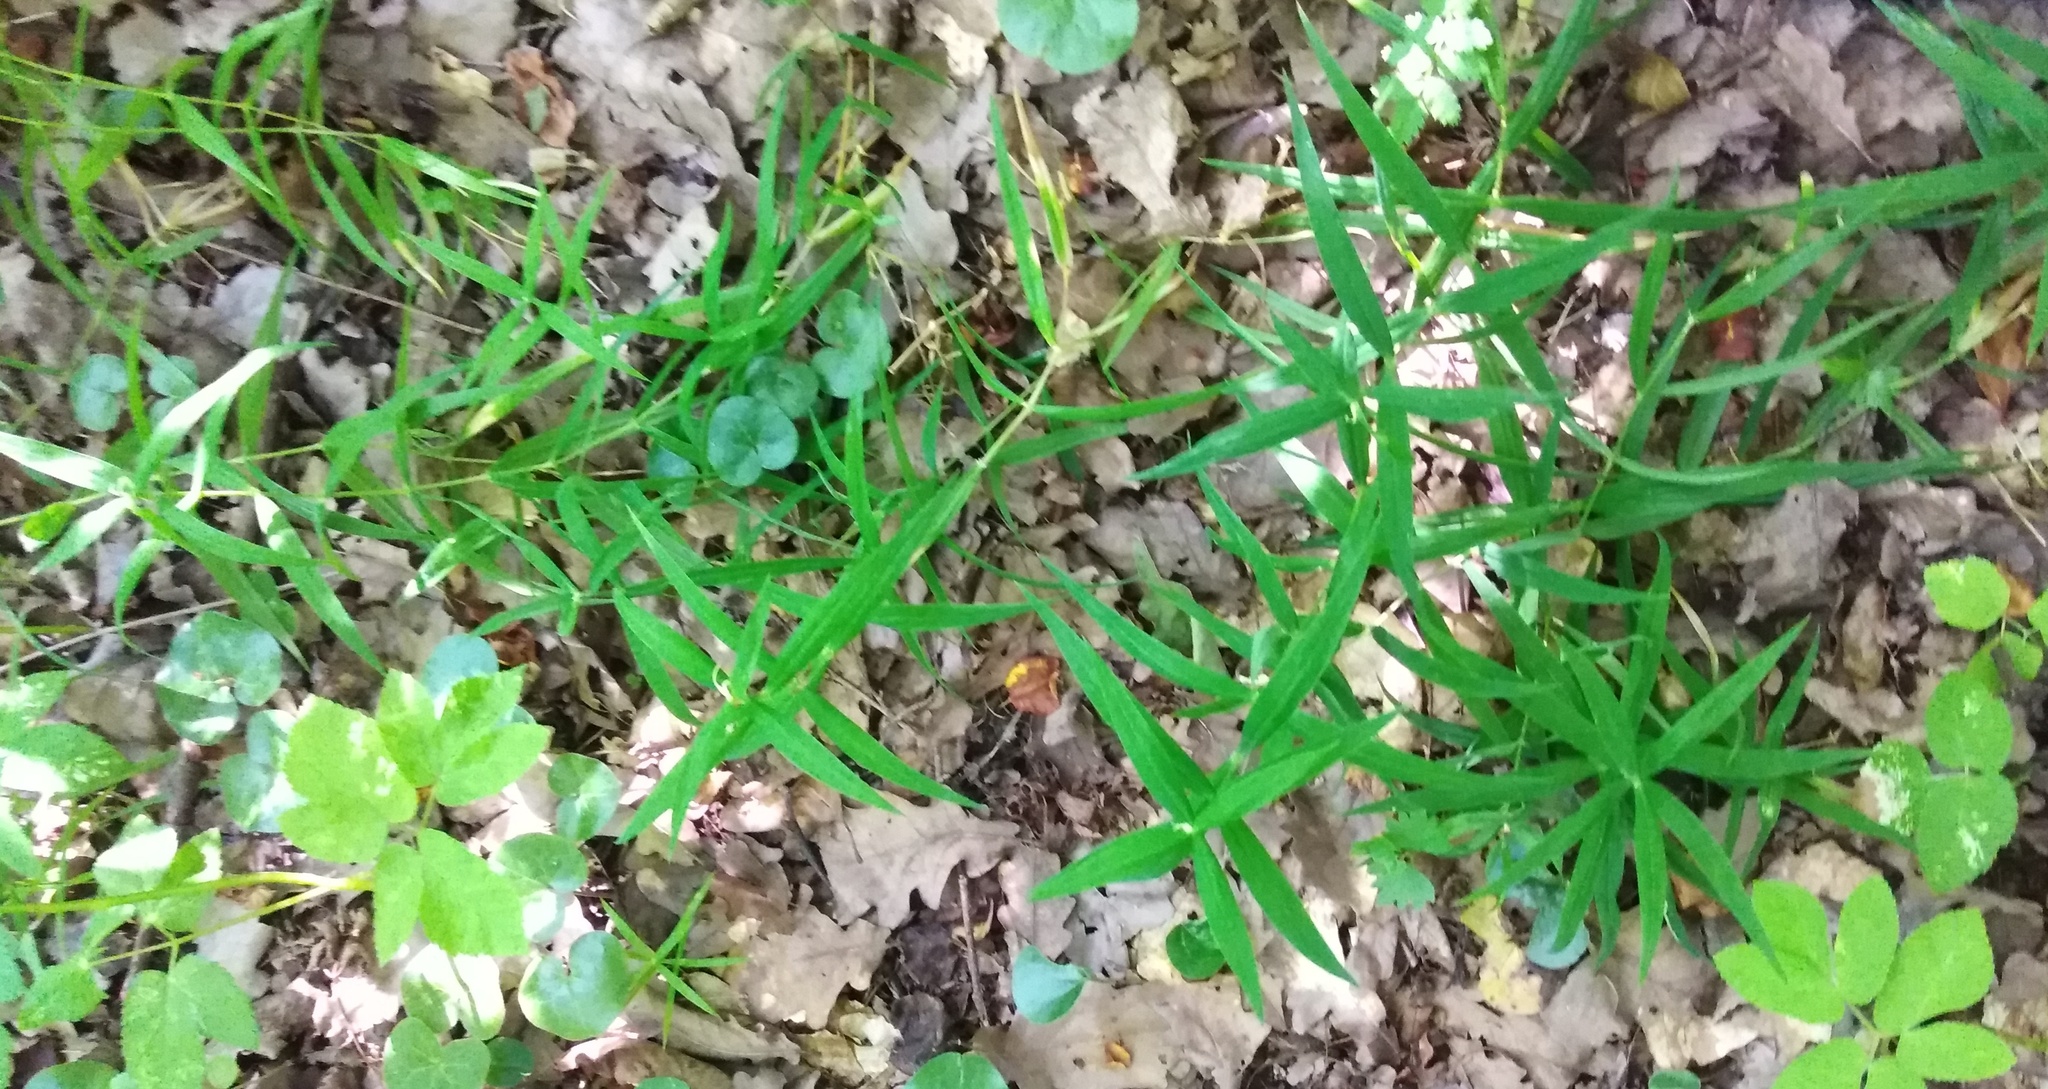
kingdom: Plantae
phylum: Tracheophyta
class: Magnoliopsida
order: Caryophyllales
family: Caryophyllaceae
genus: Rabelera
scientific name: Rabelera holostea
